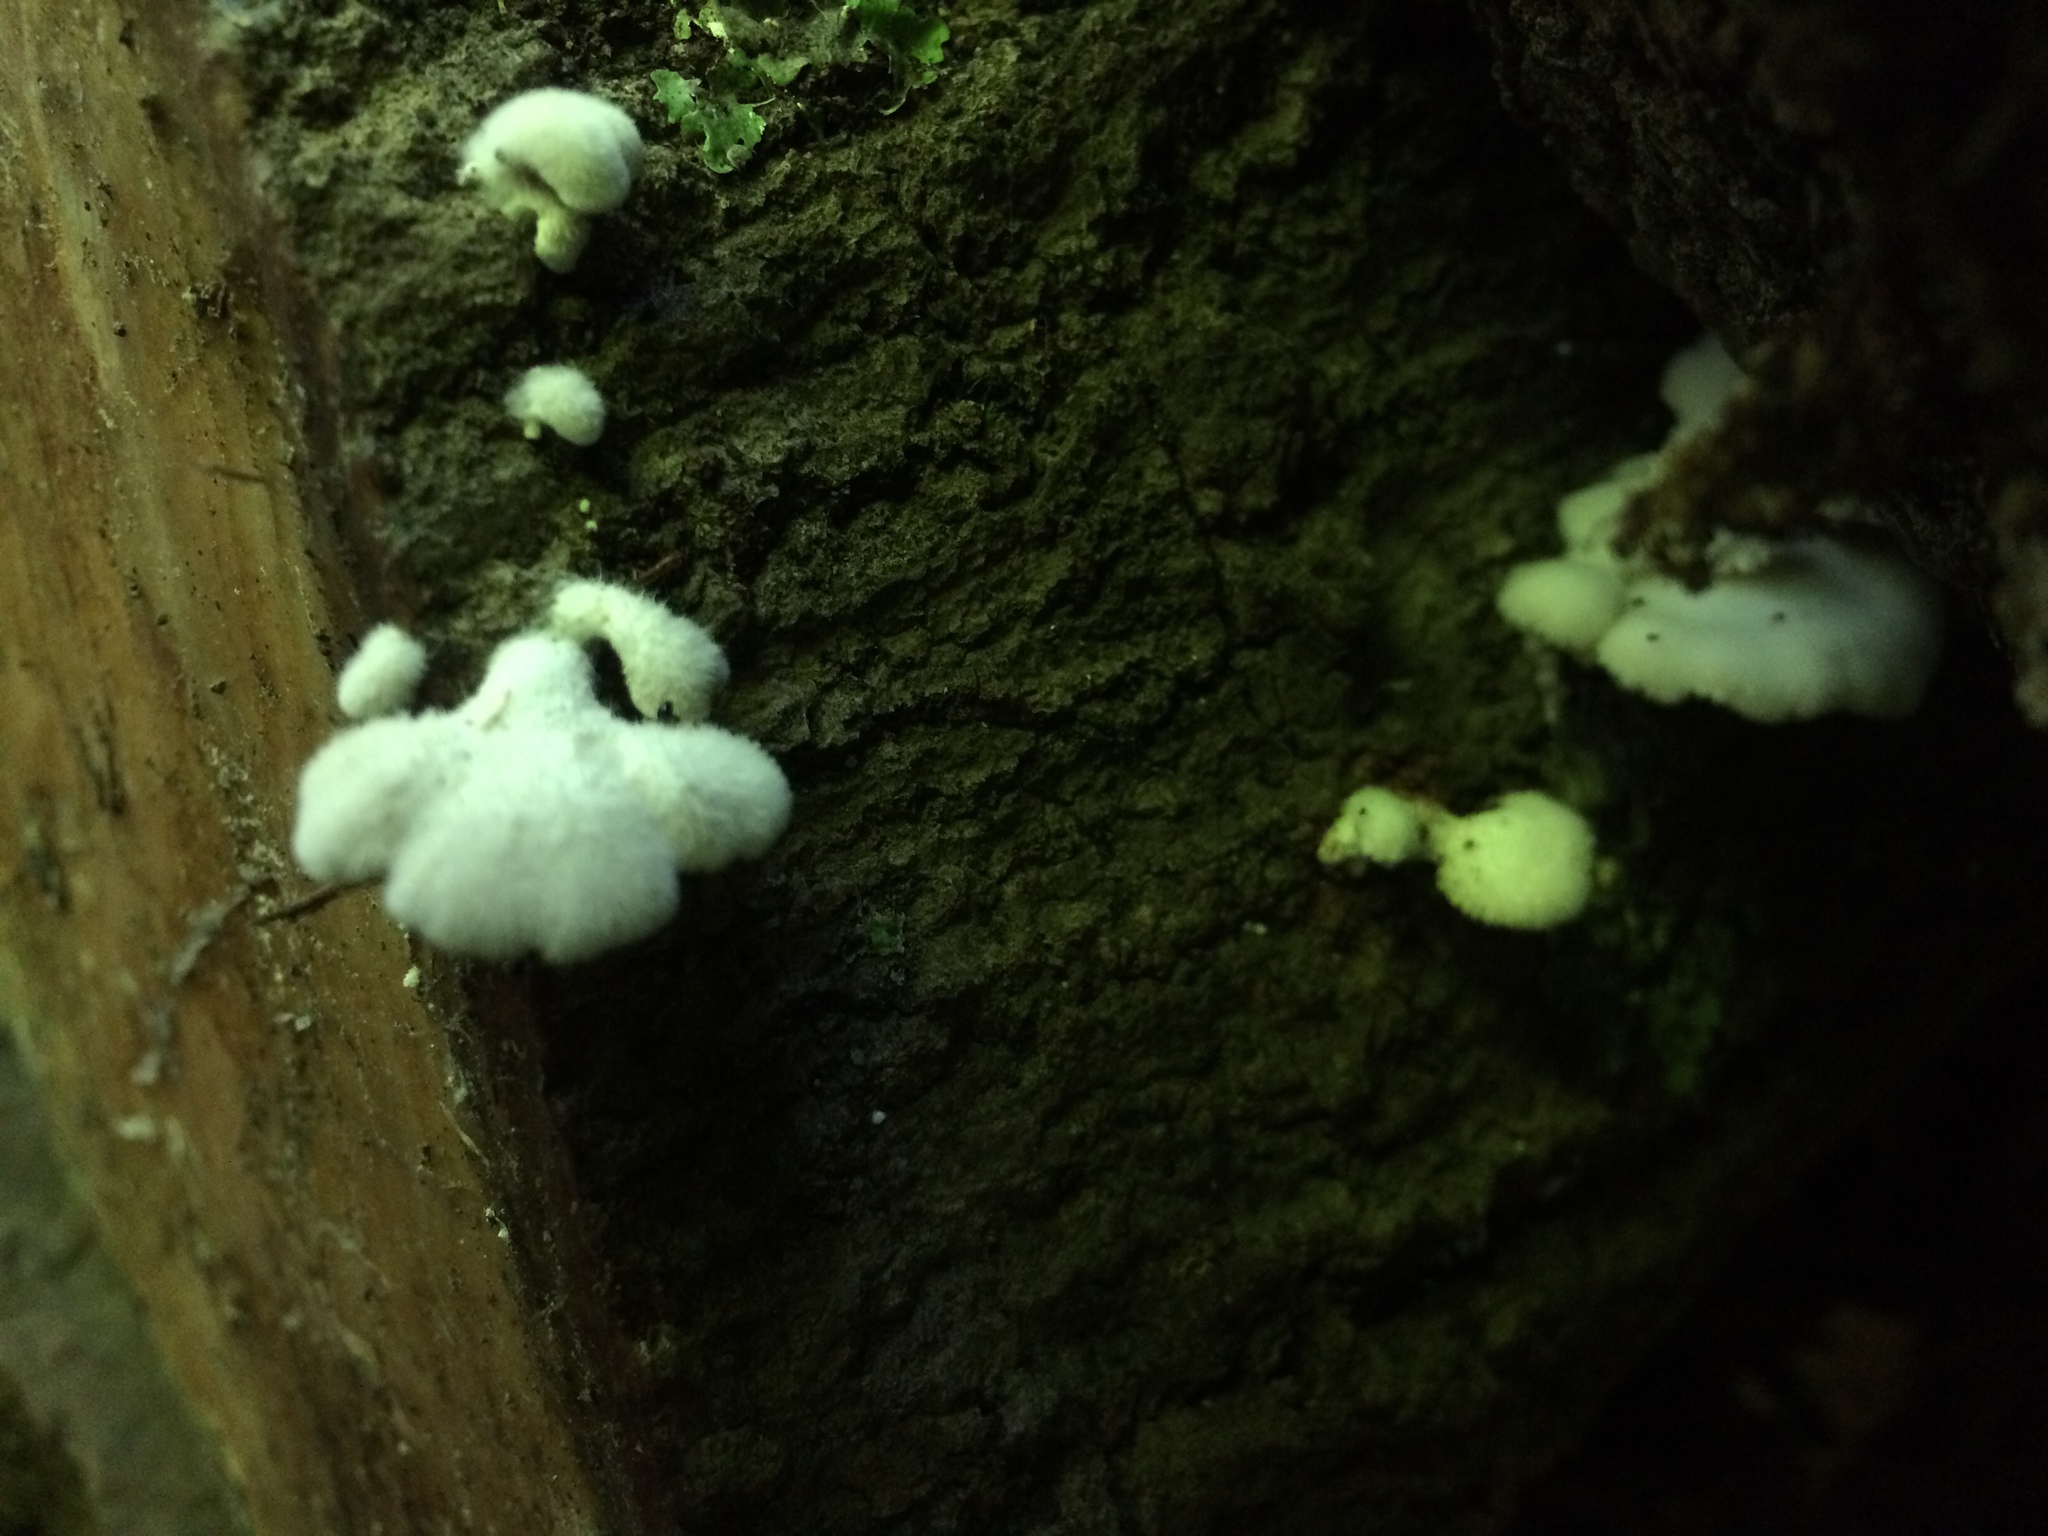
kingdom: Fungi
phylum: Basidiomycota
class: Agaricomycetes
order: Agaricales
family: Schizophyllaceae
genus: Schizophyllum
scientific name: Schizophyllum commune
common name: Common porecrust
